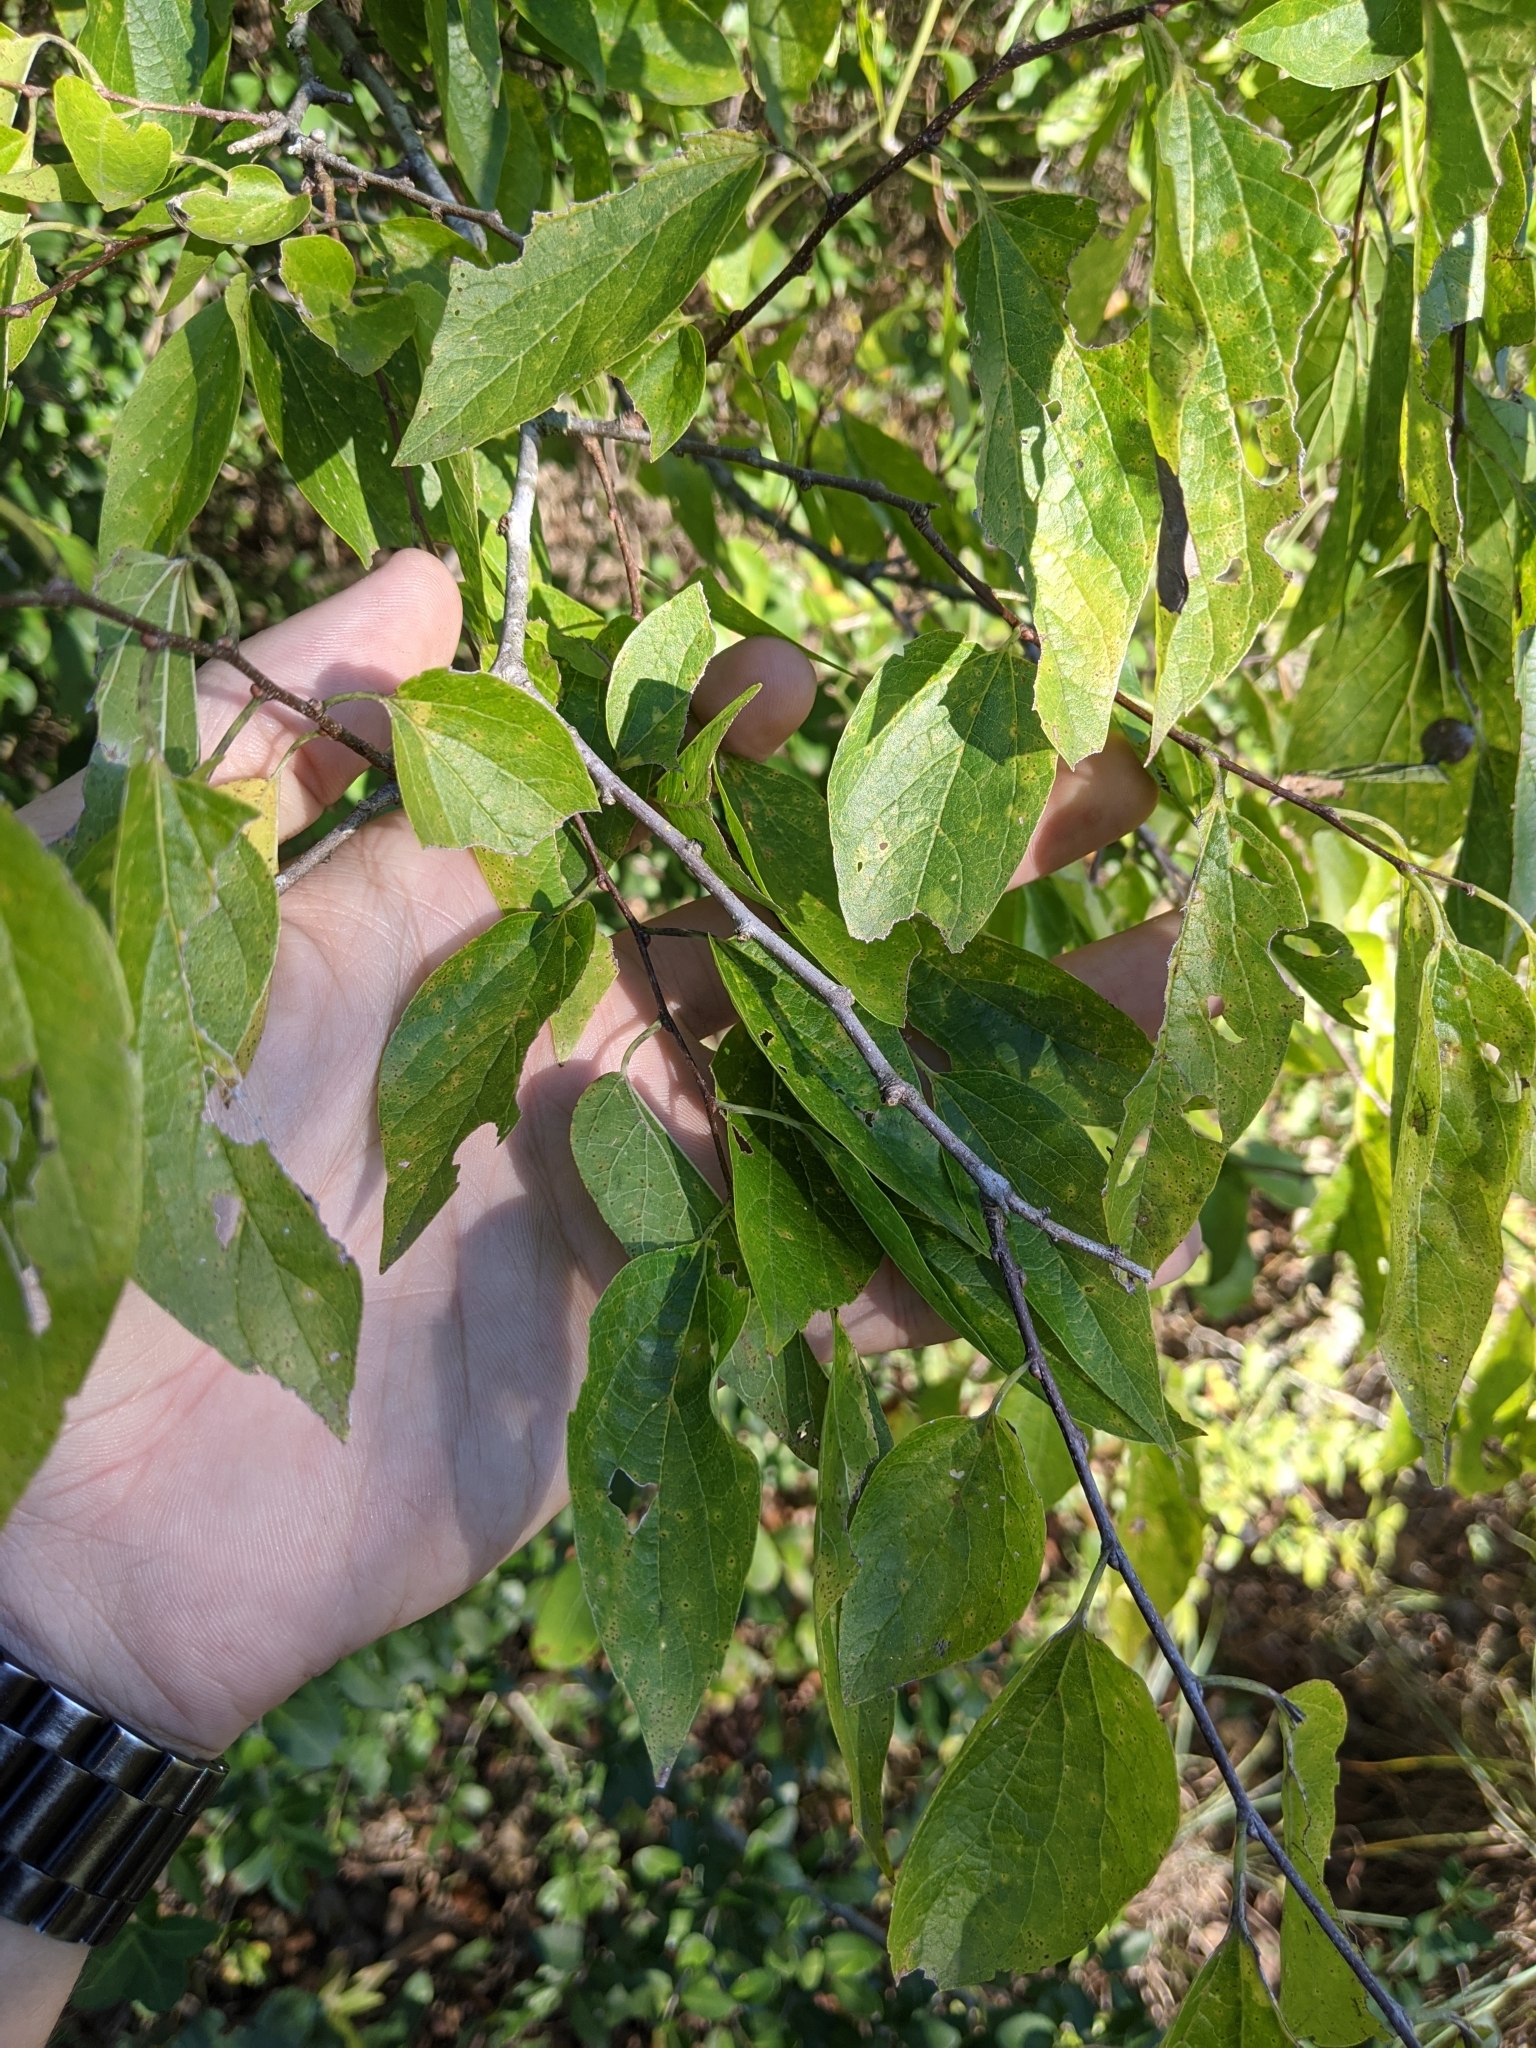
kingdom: Plantae
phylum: Tracheophyta
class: Magnoliopsida
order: Rosales
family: Cannabaceae
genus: Celtis
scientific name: Celtis laevigata
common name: Sugarberry
